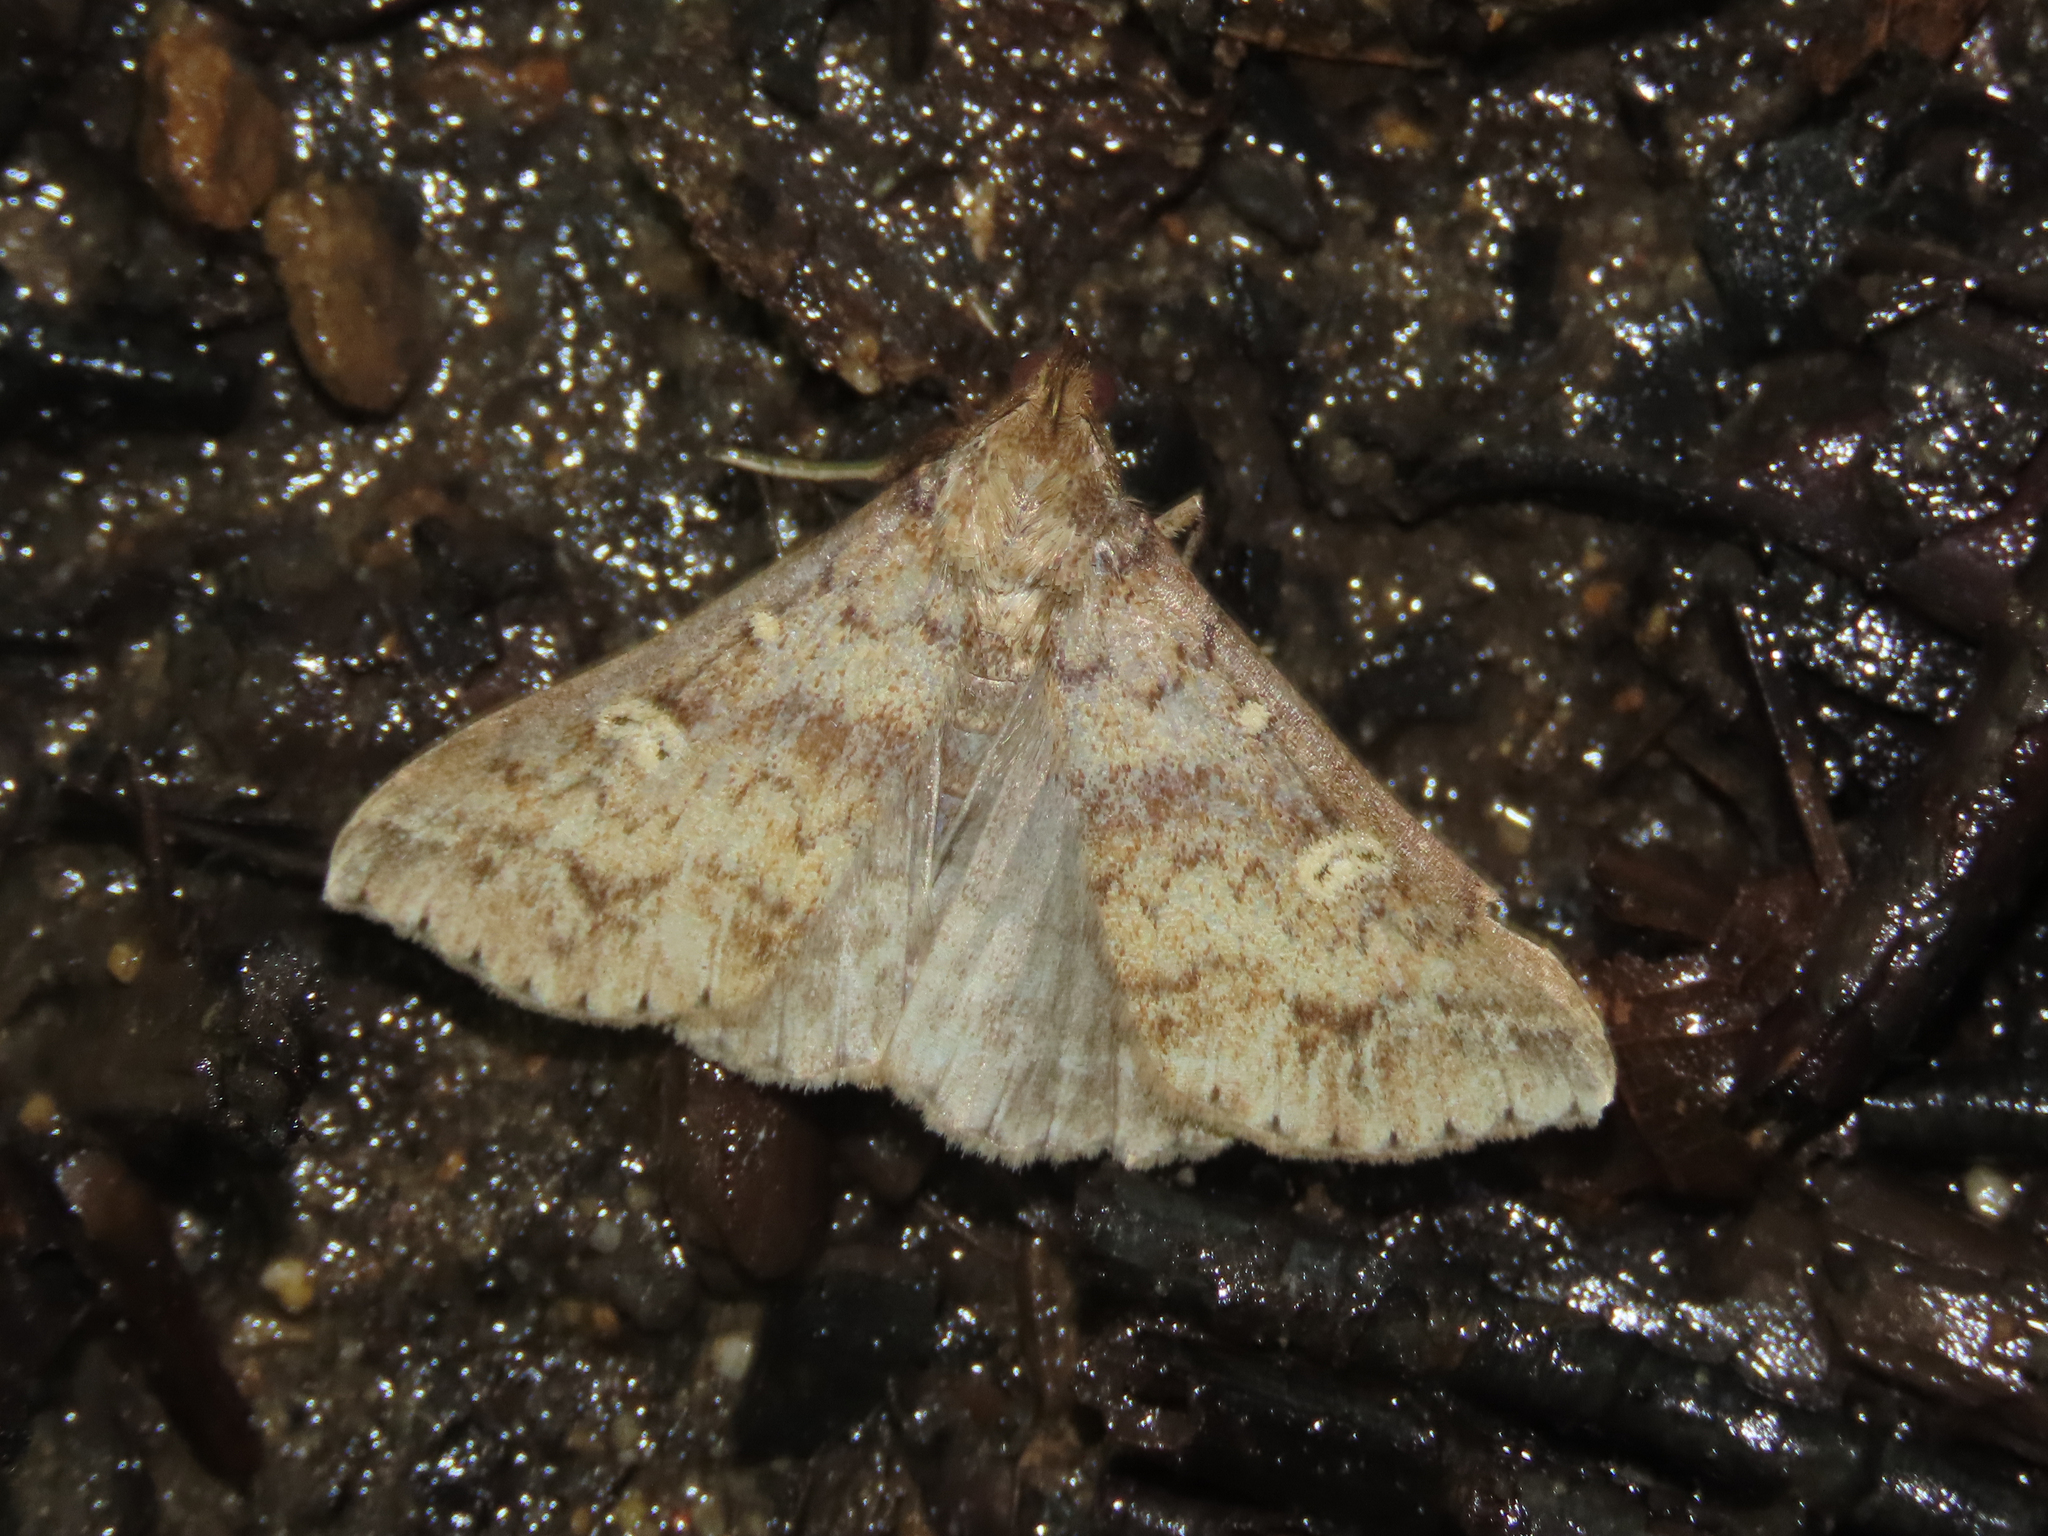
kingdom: Animalia
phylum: Arthropoda
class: Insecta
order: Lepidoptera
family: Erebidae
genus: Renia
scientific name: Renia discoloralis
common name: Discolored renia moth
